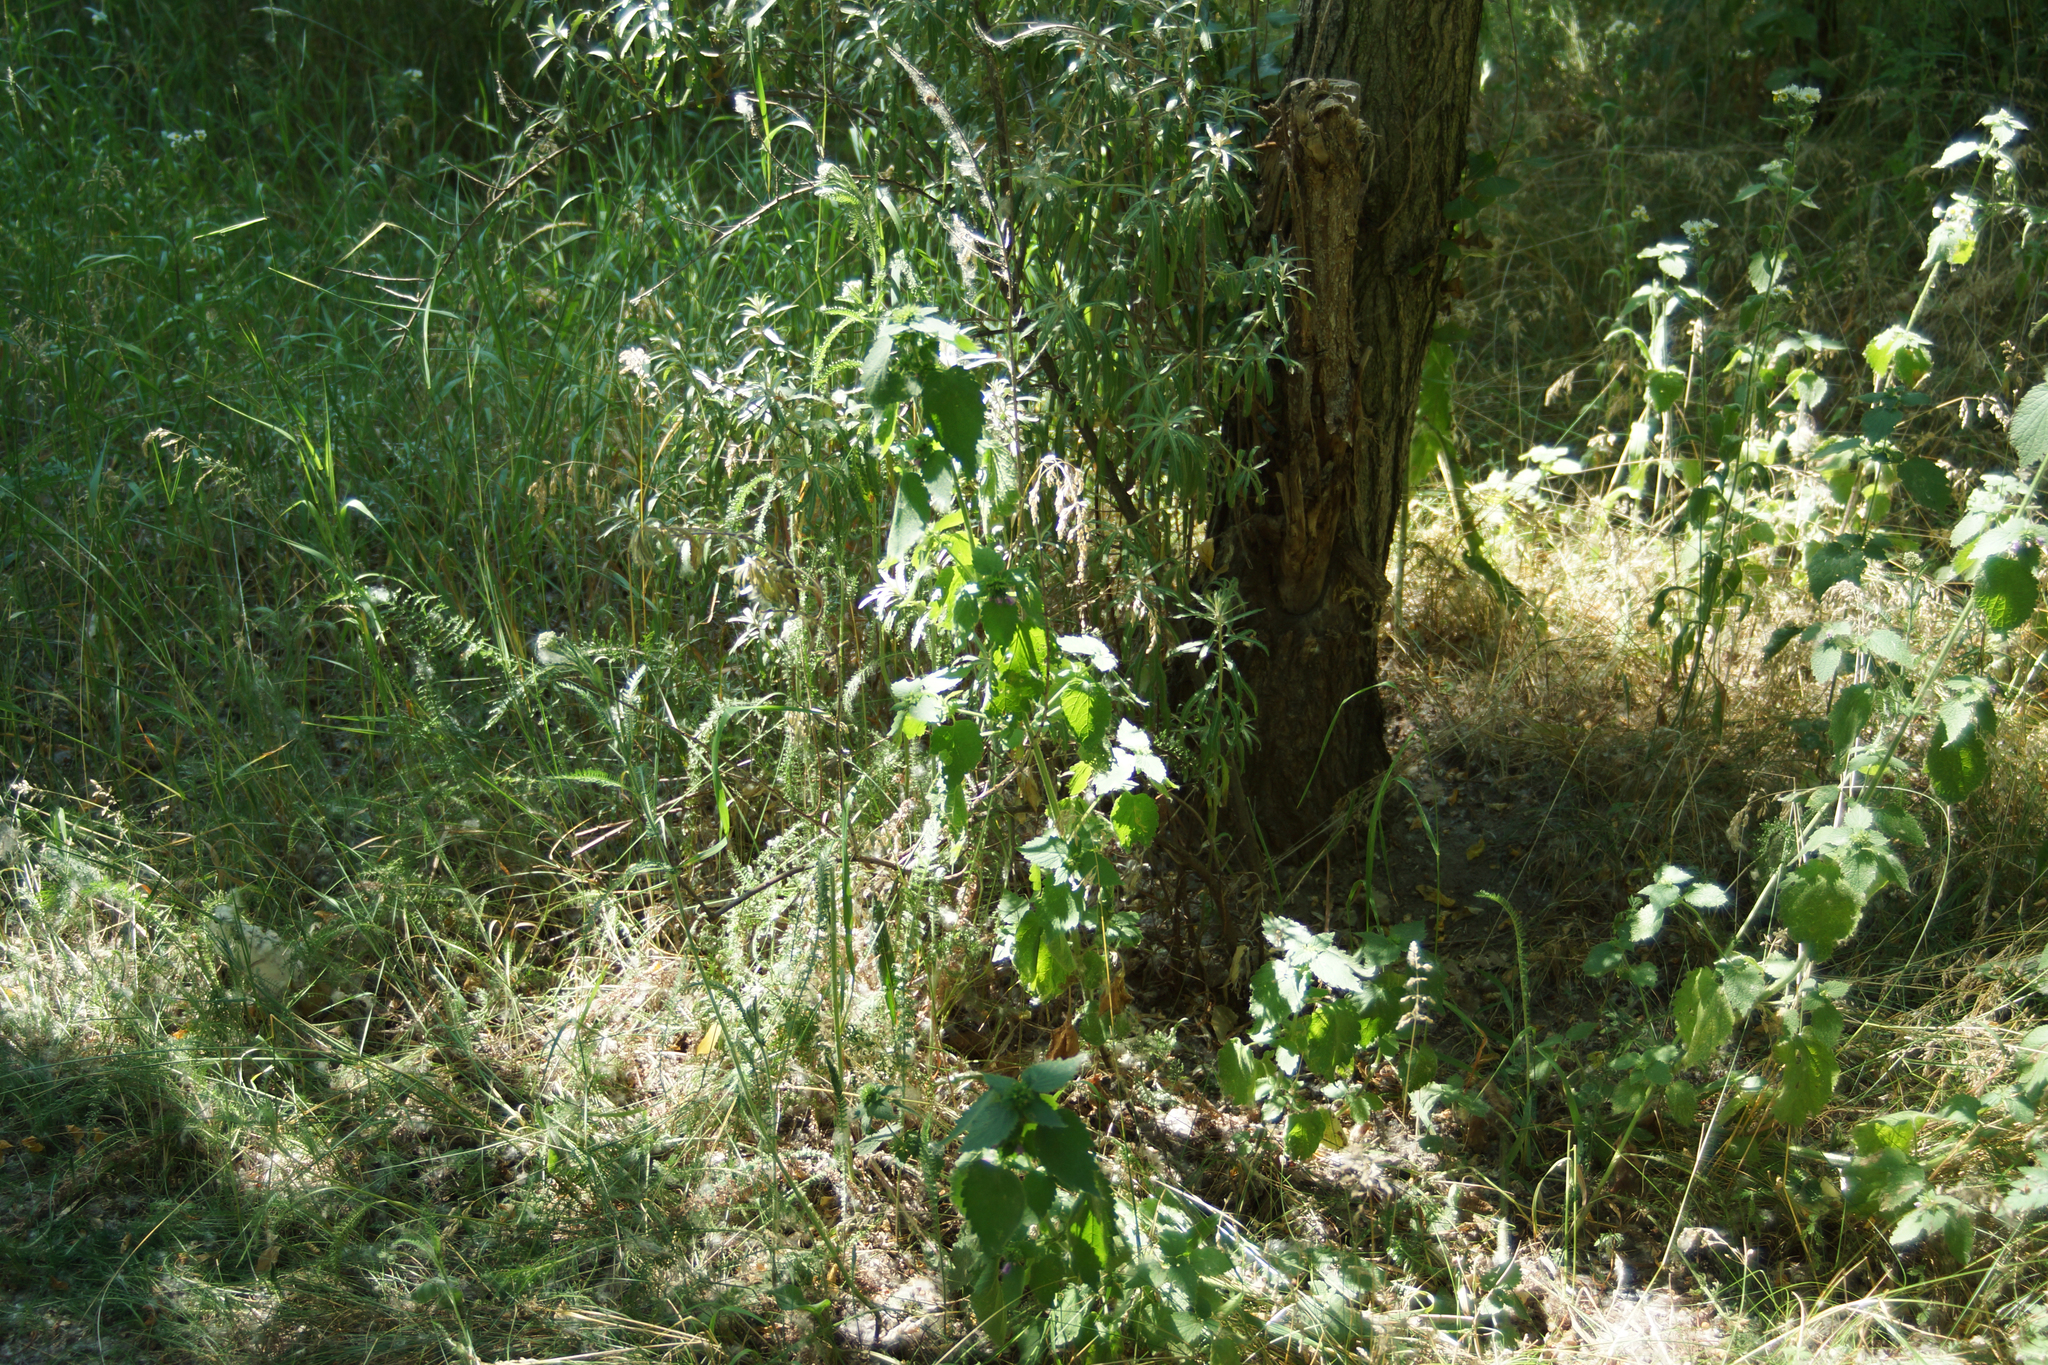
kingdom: Plantae
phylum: Tracheophyta
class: Magnoliopsida
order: Lamiales
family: Lamiaceae
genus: Ballota
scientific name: Ballota nigra
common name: Black horehound
